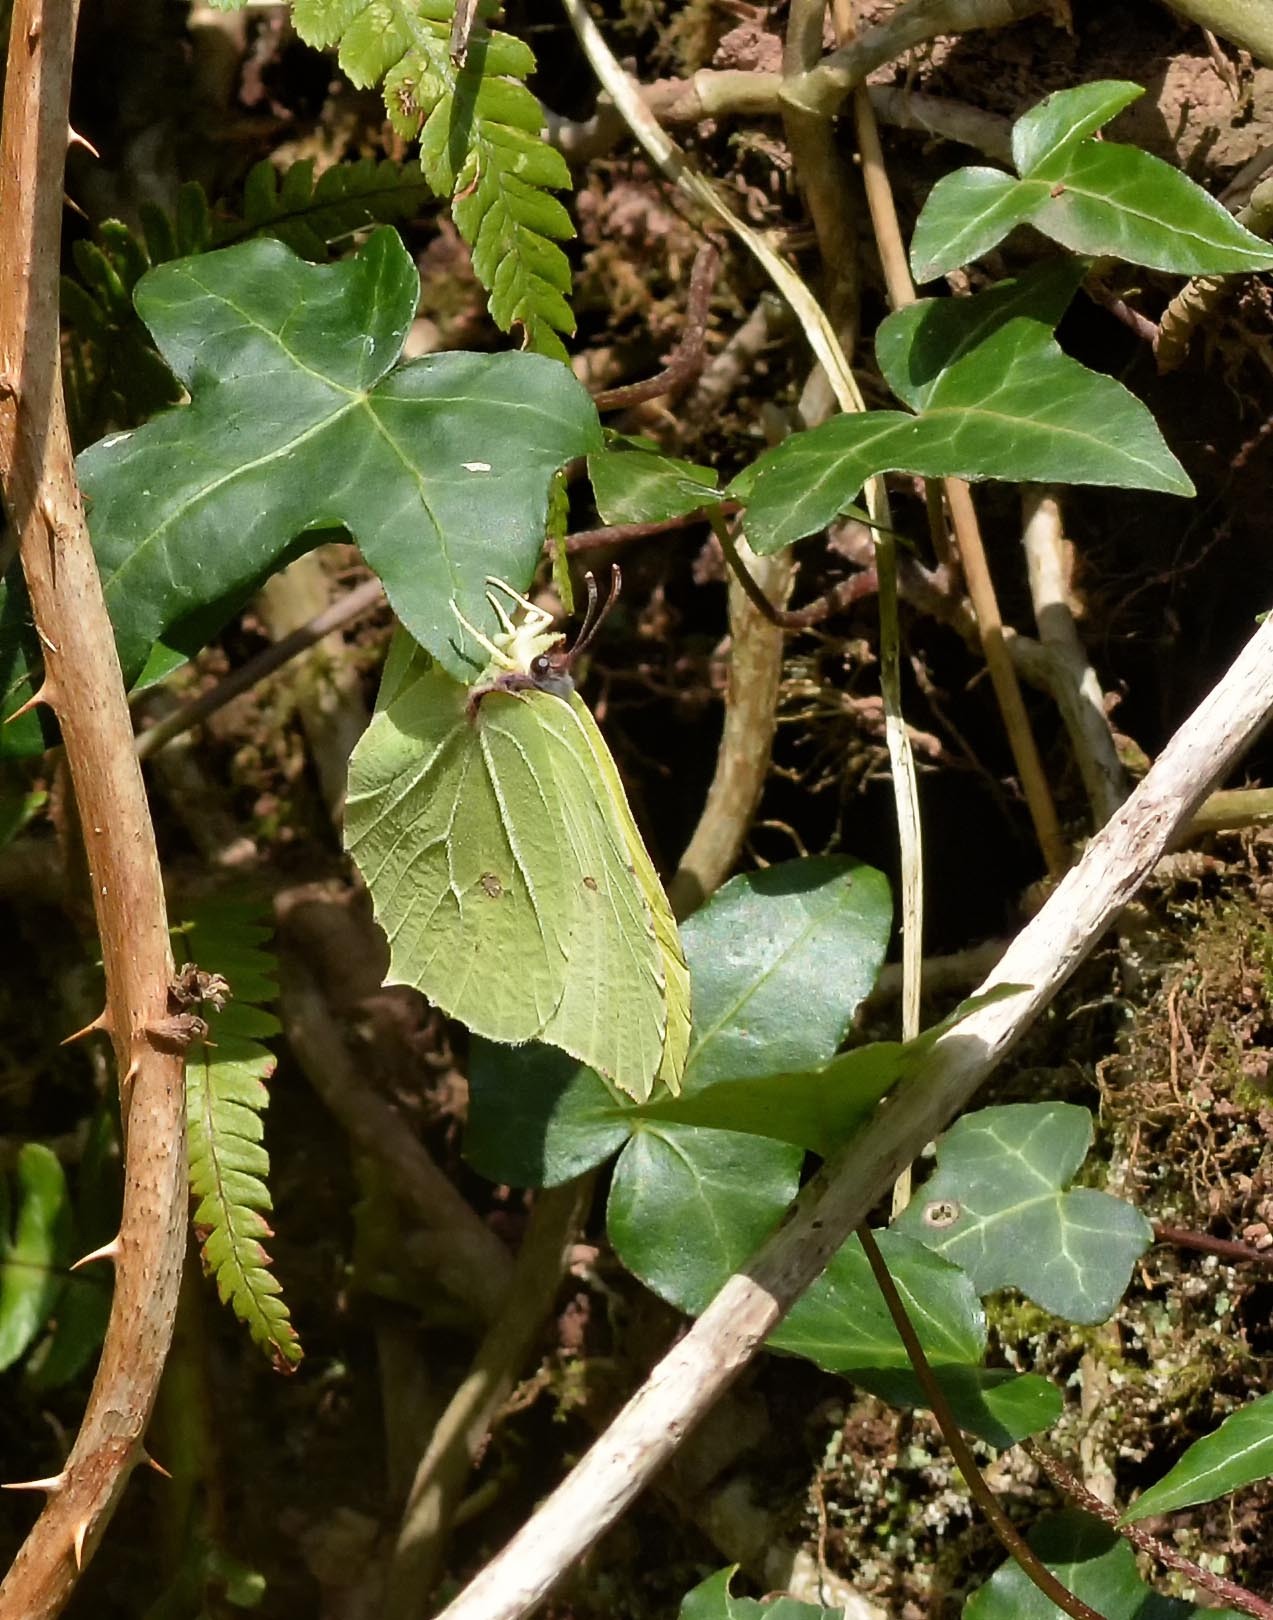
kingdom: Animalia
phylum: Arthropoda
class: Insecta
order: Lepidoptera
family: Pieridae
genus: Gonepteryx
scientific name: Gonepteryx rhamni
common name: Brimstone
